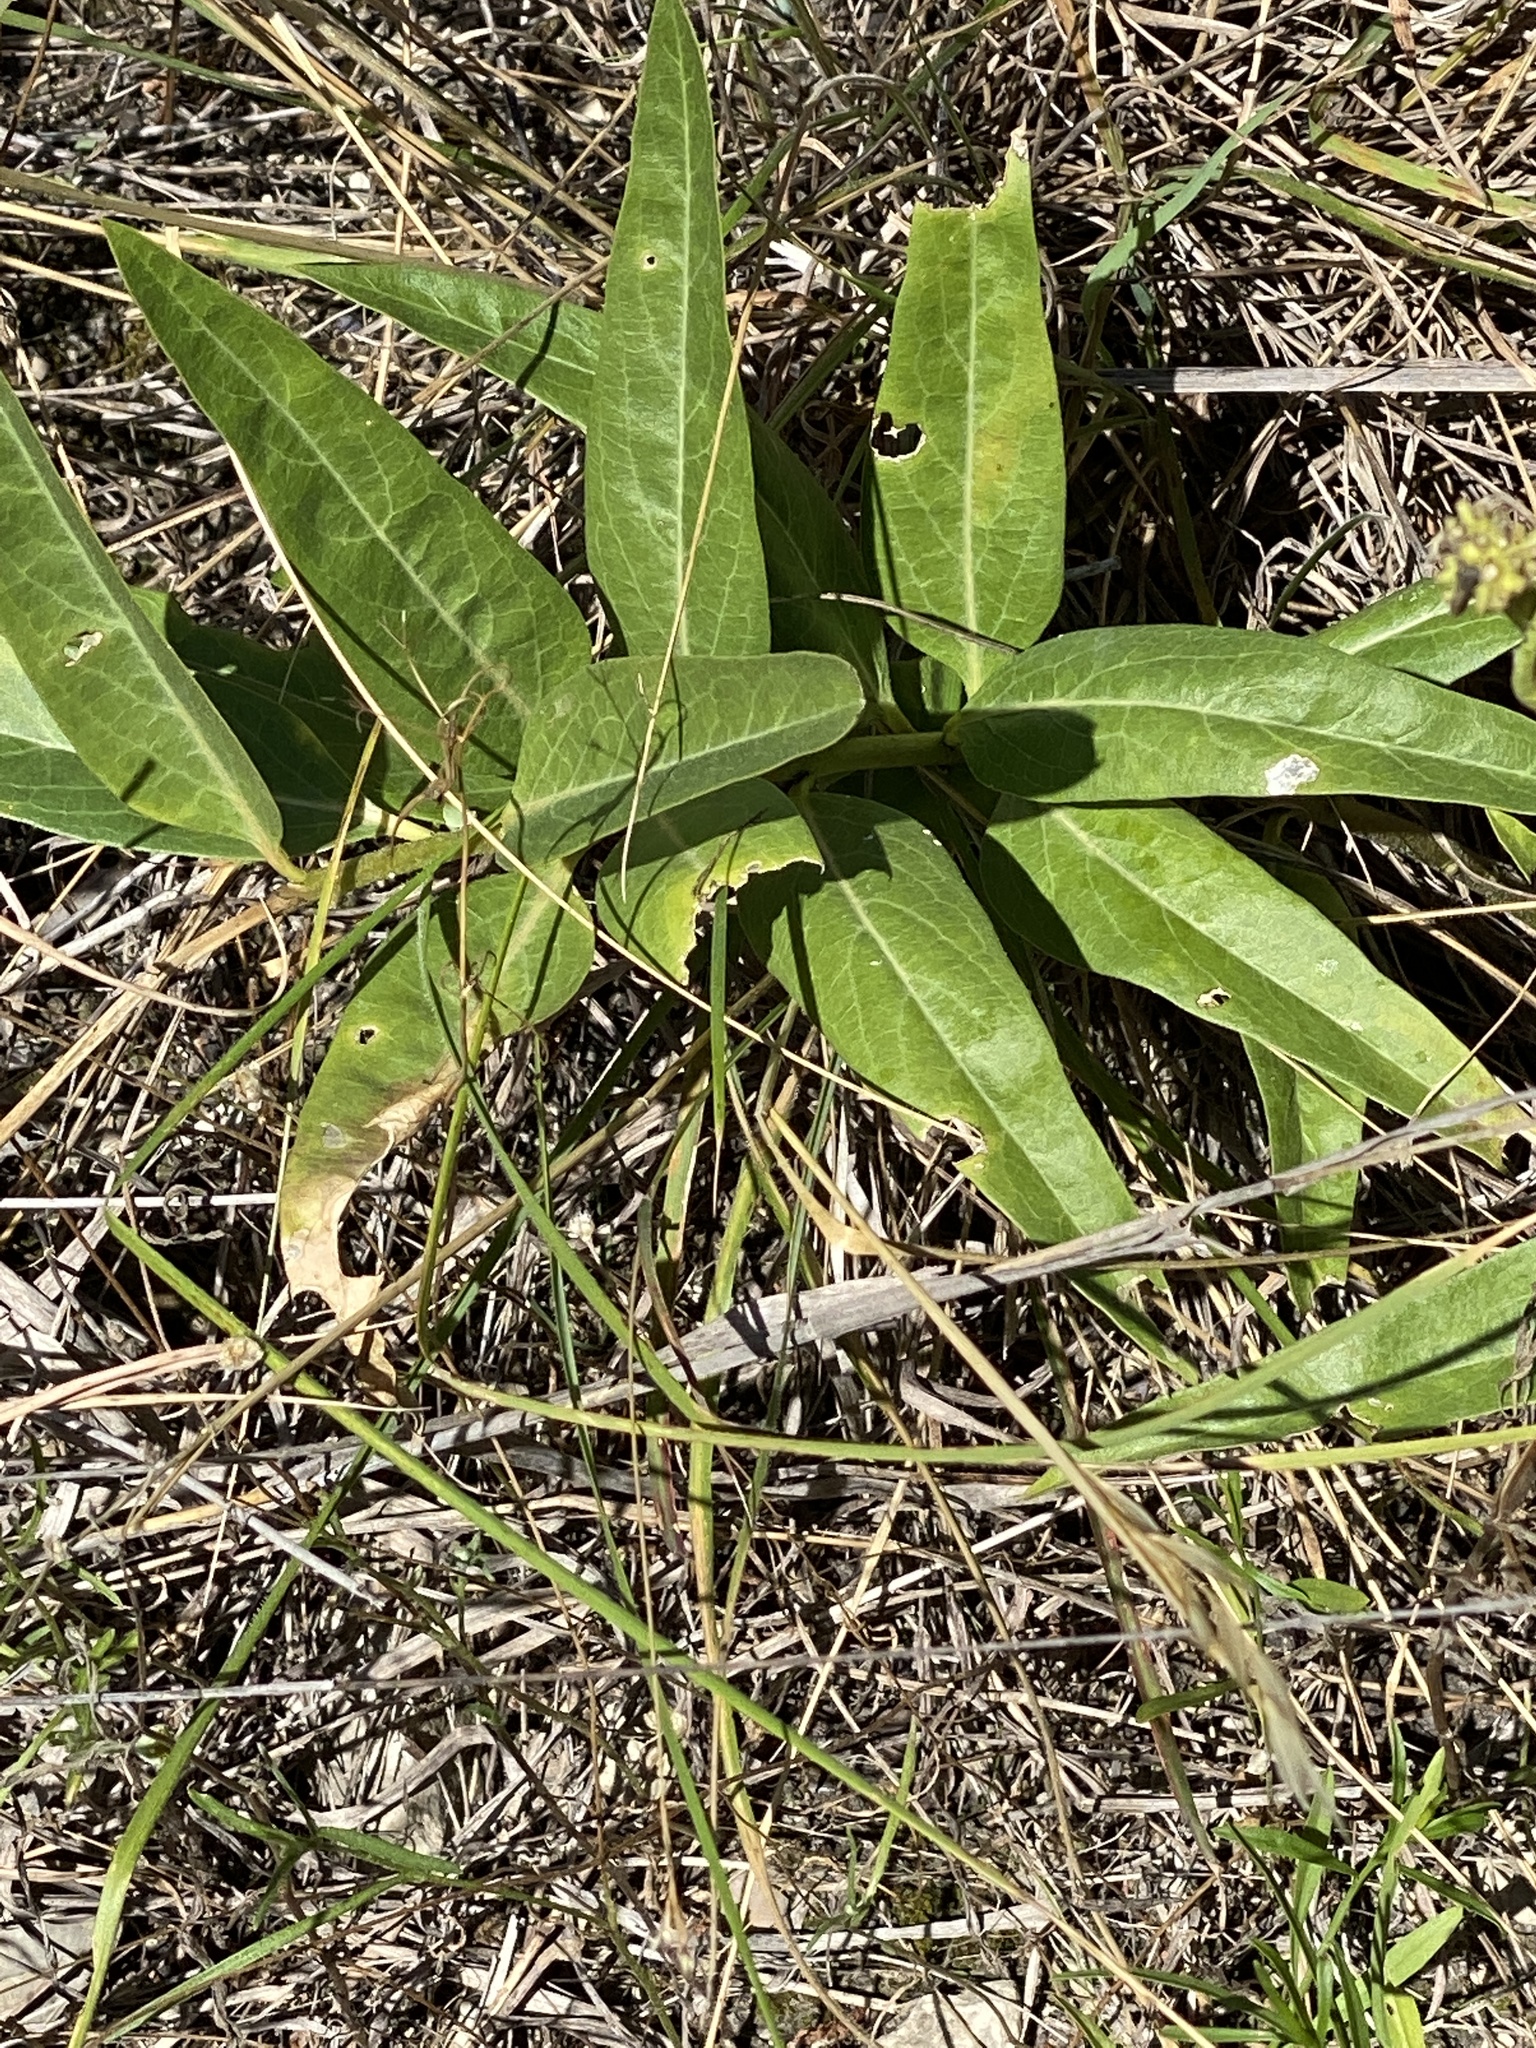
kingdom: Plantae
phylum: Tracheophyta
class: Magnoliopsida
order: Gentianales
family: Apocynaceae
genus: Asclepias
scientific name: Asclepias asperula
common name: Antelope horns
